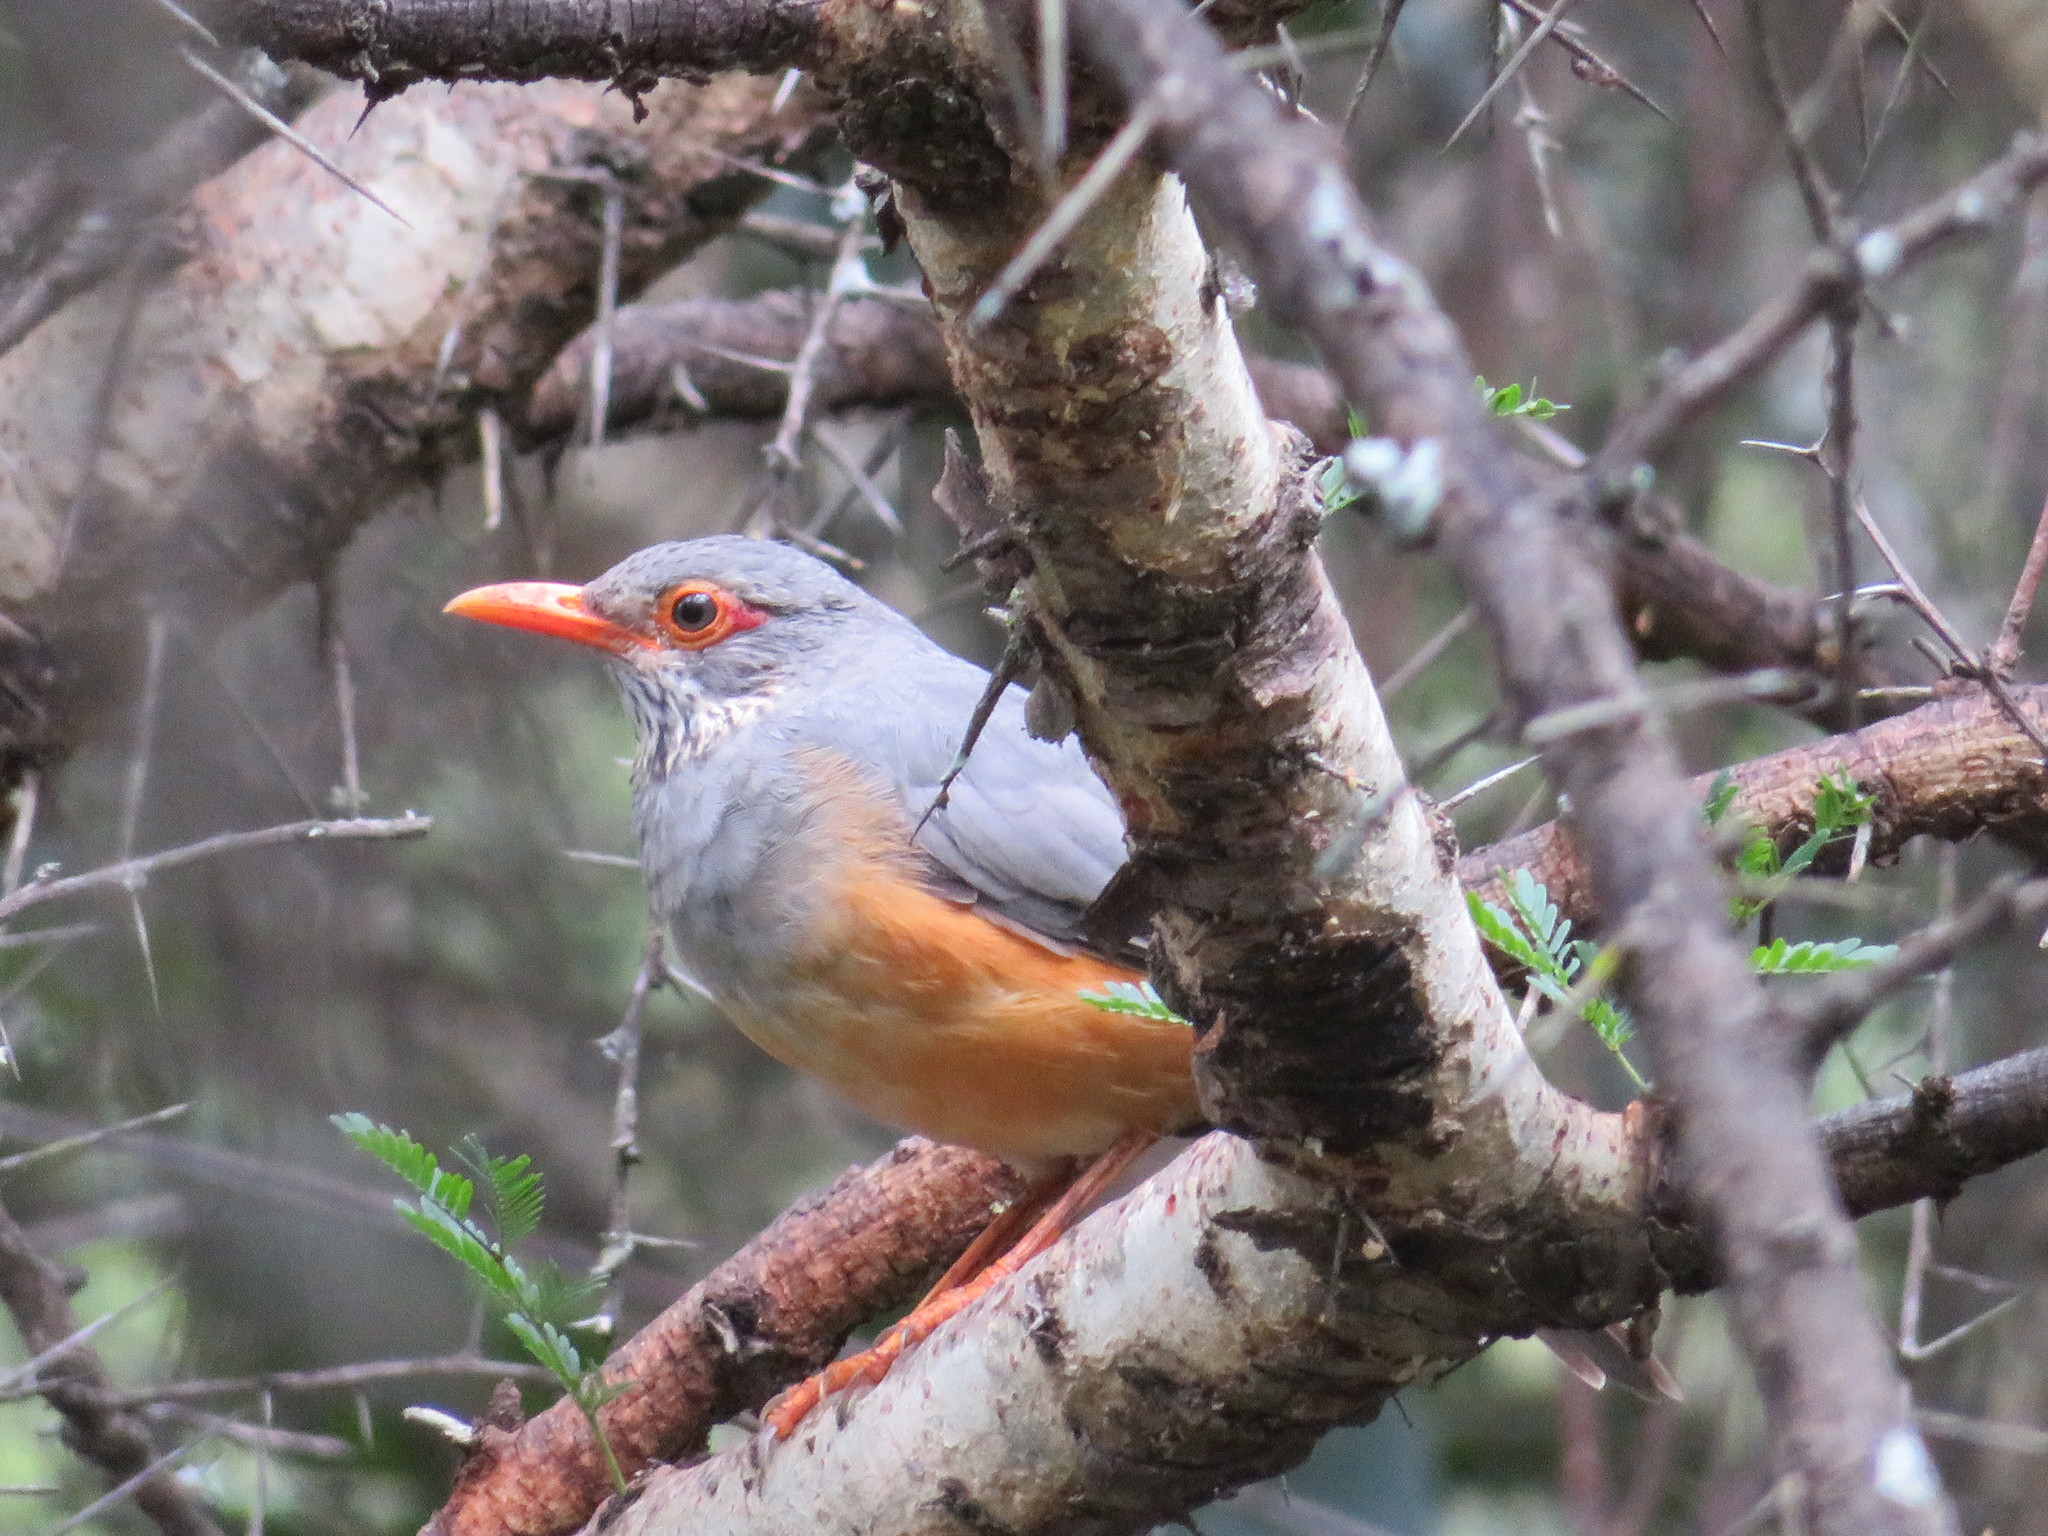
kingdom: Animalia
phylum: Chordata
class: Aves
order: Passeriformes
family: Turdidae
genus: Turdus
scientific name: Turdus tephronotus
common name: African bare-eyed thrush
